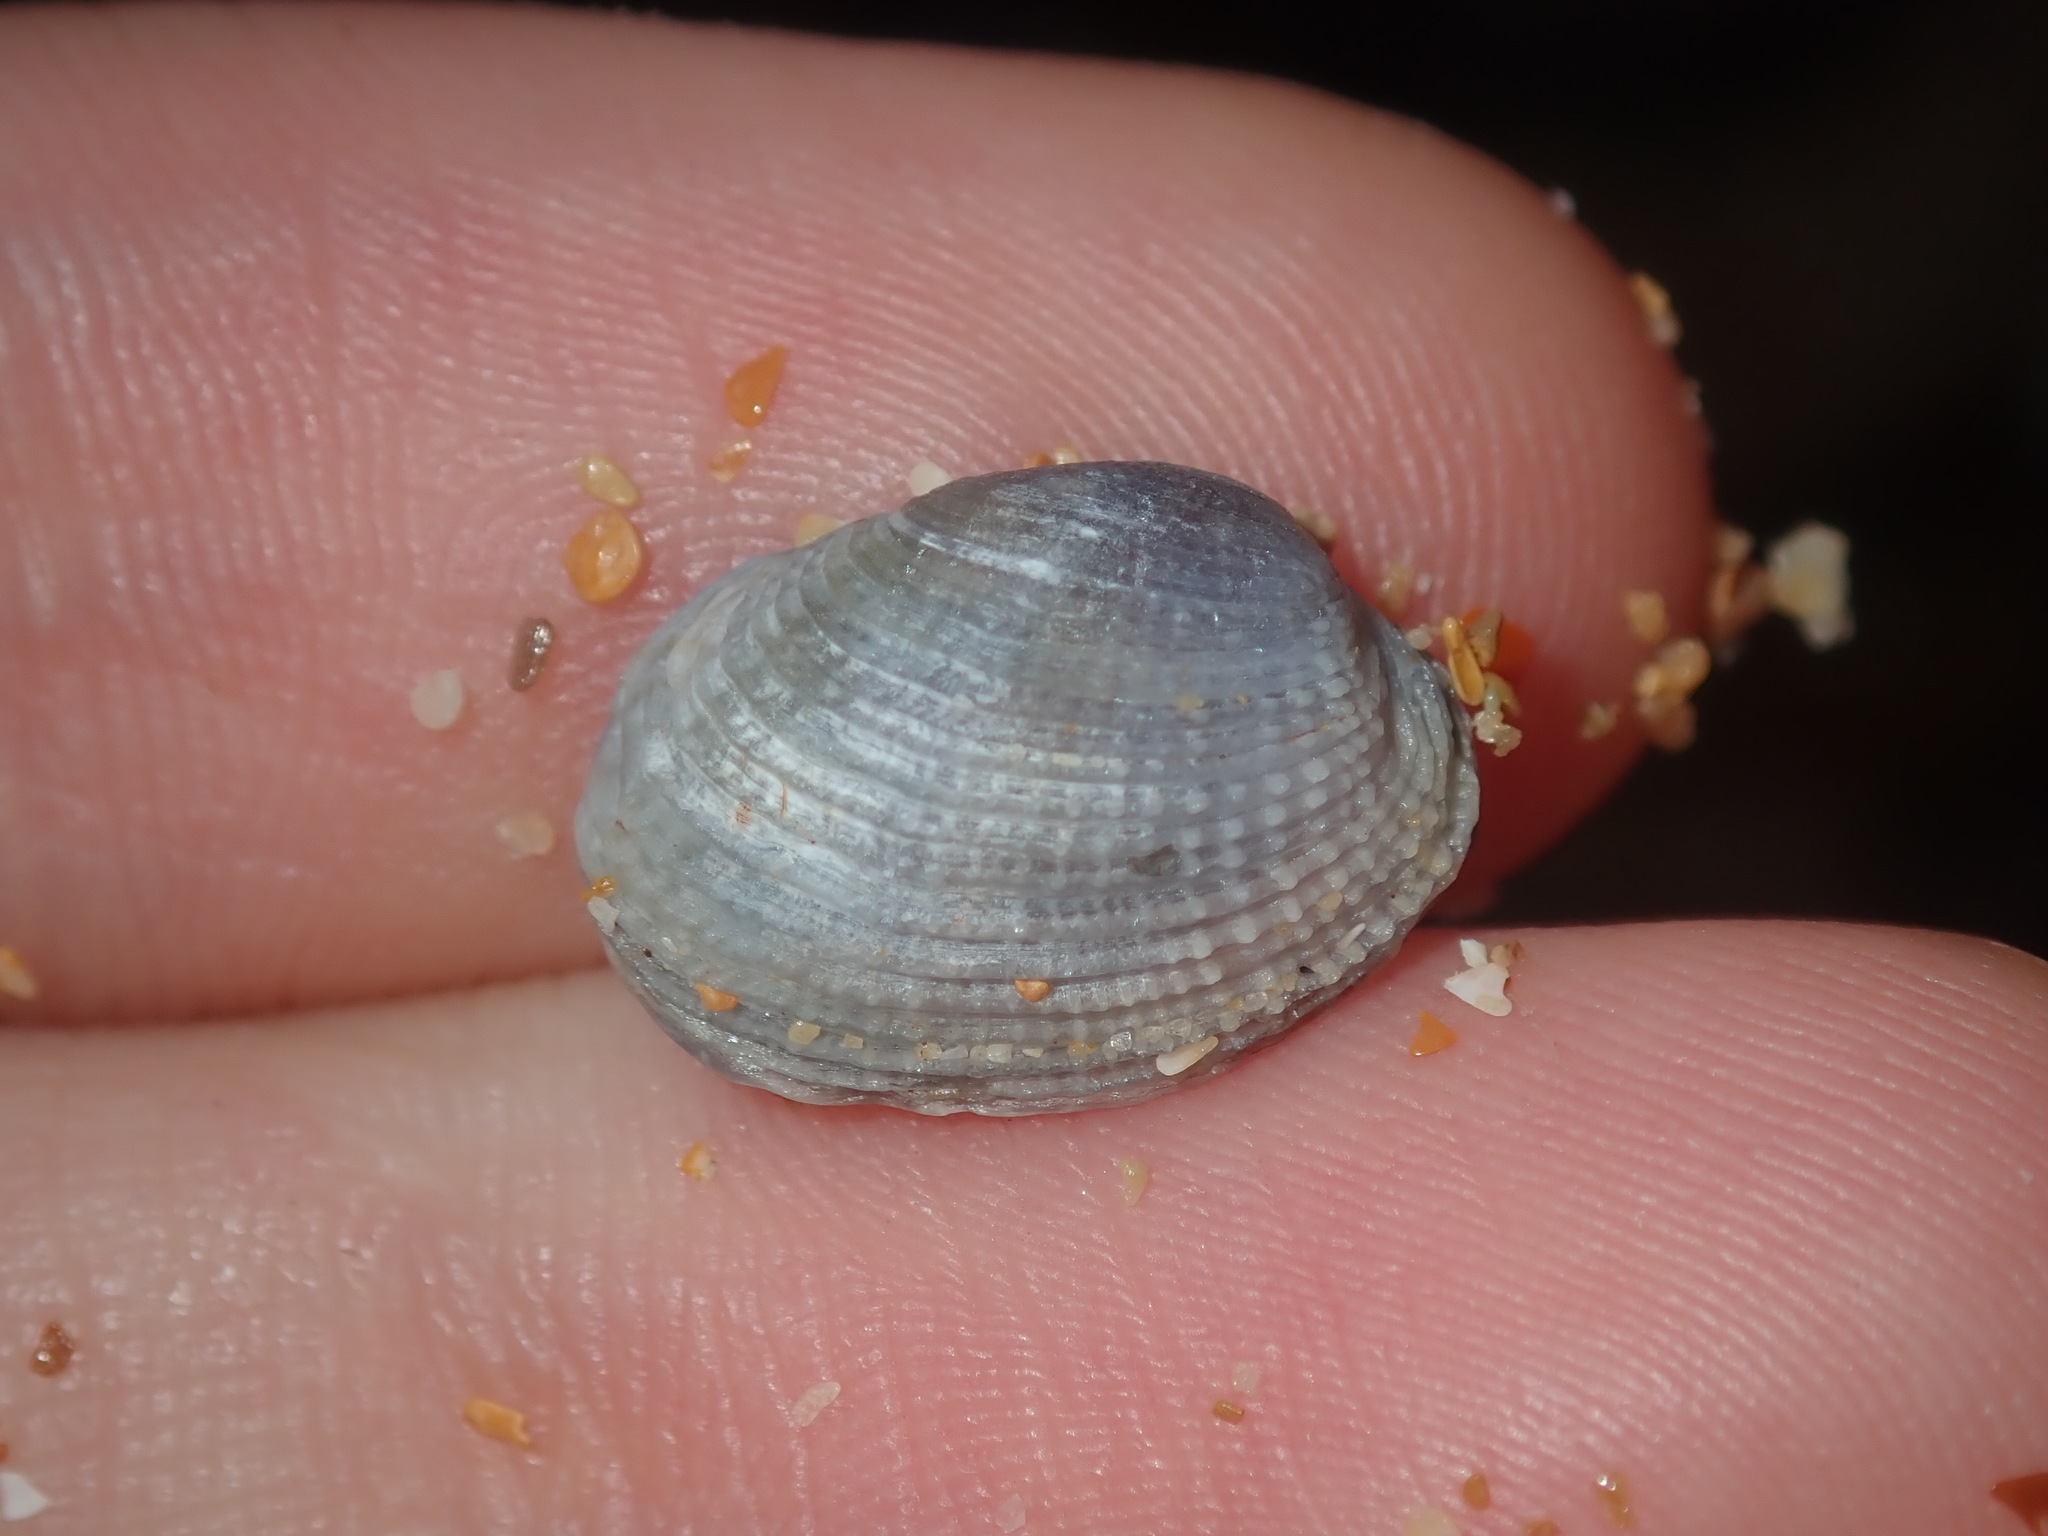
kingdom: Animalia
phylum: Mollusca
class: Bivalvia
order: Venerida
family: Veneridae
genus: Irus
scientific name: Irus cumingii
